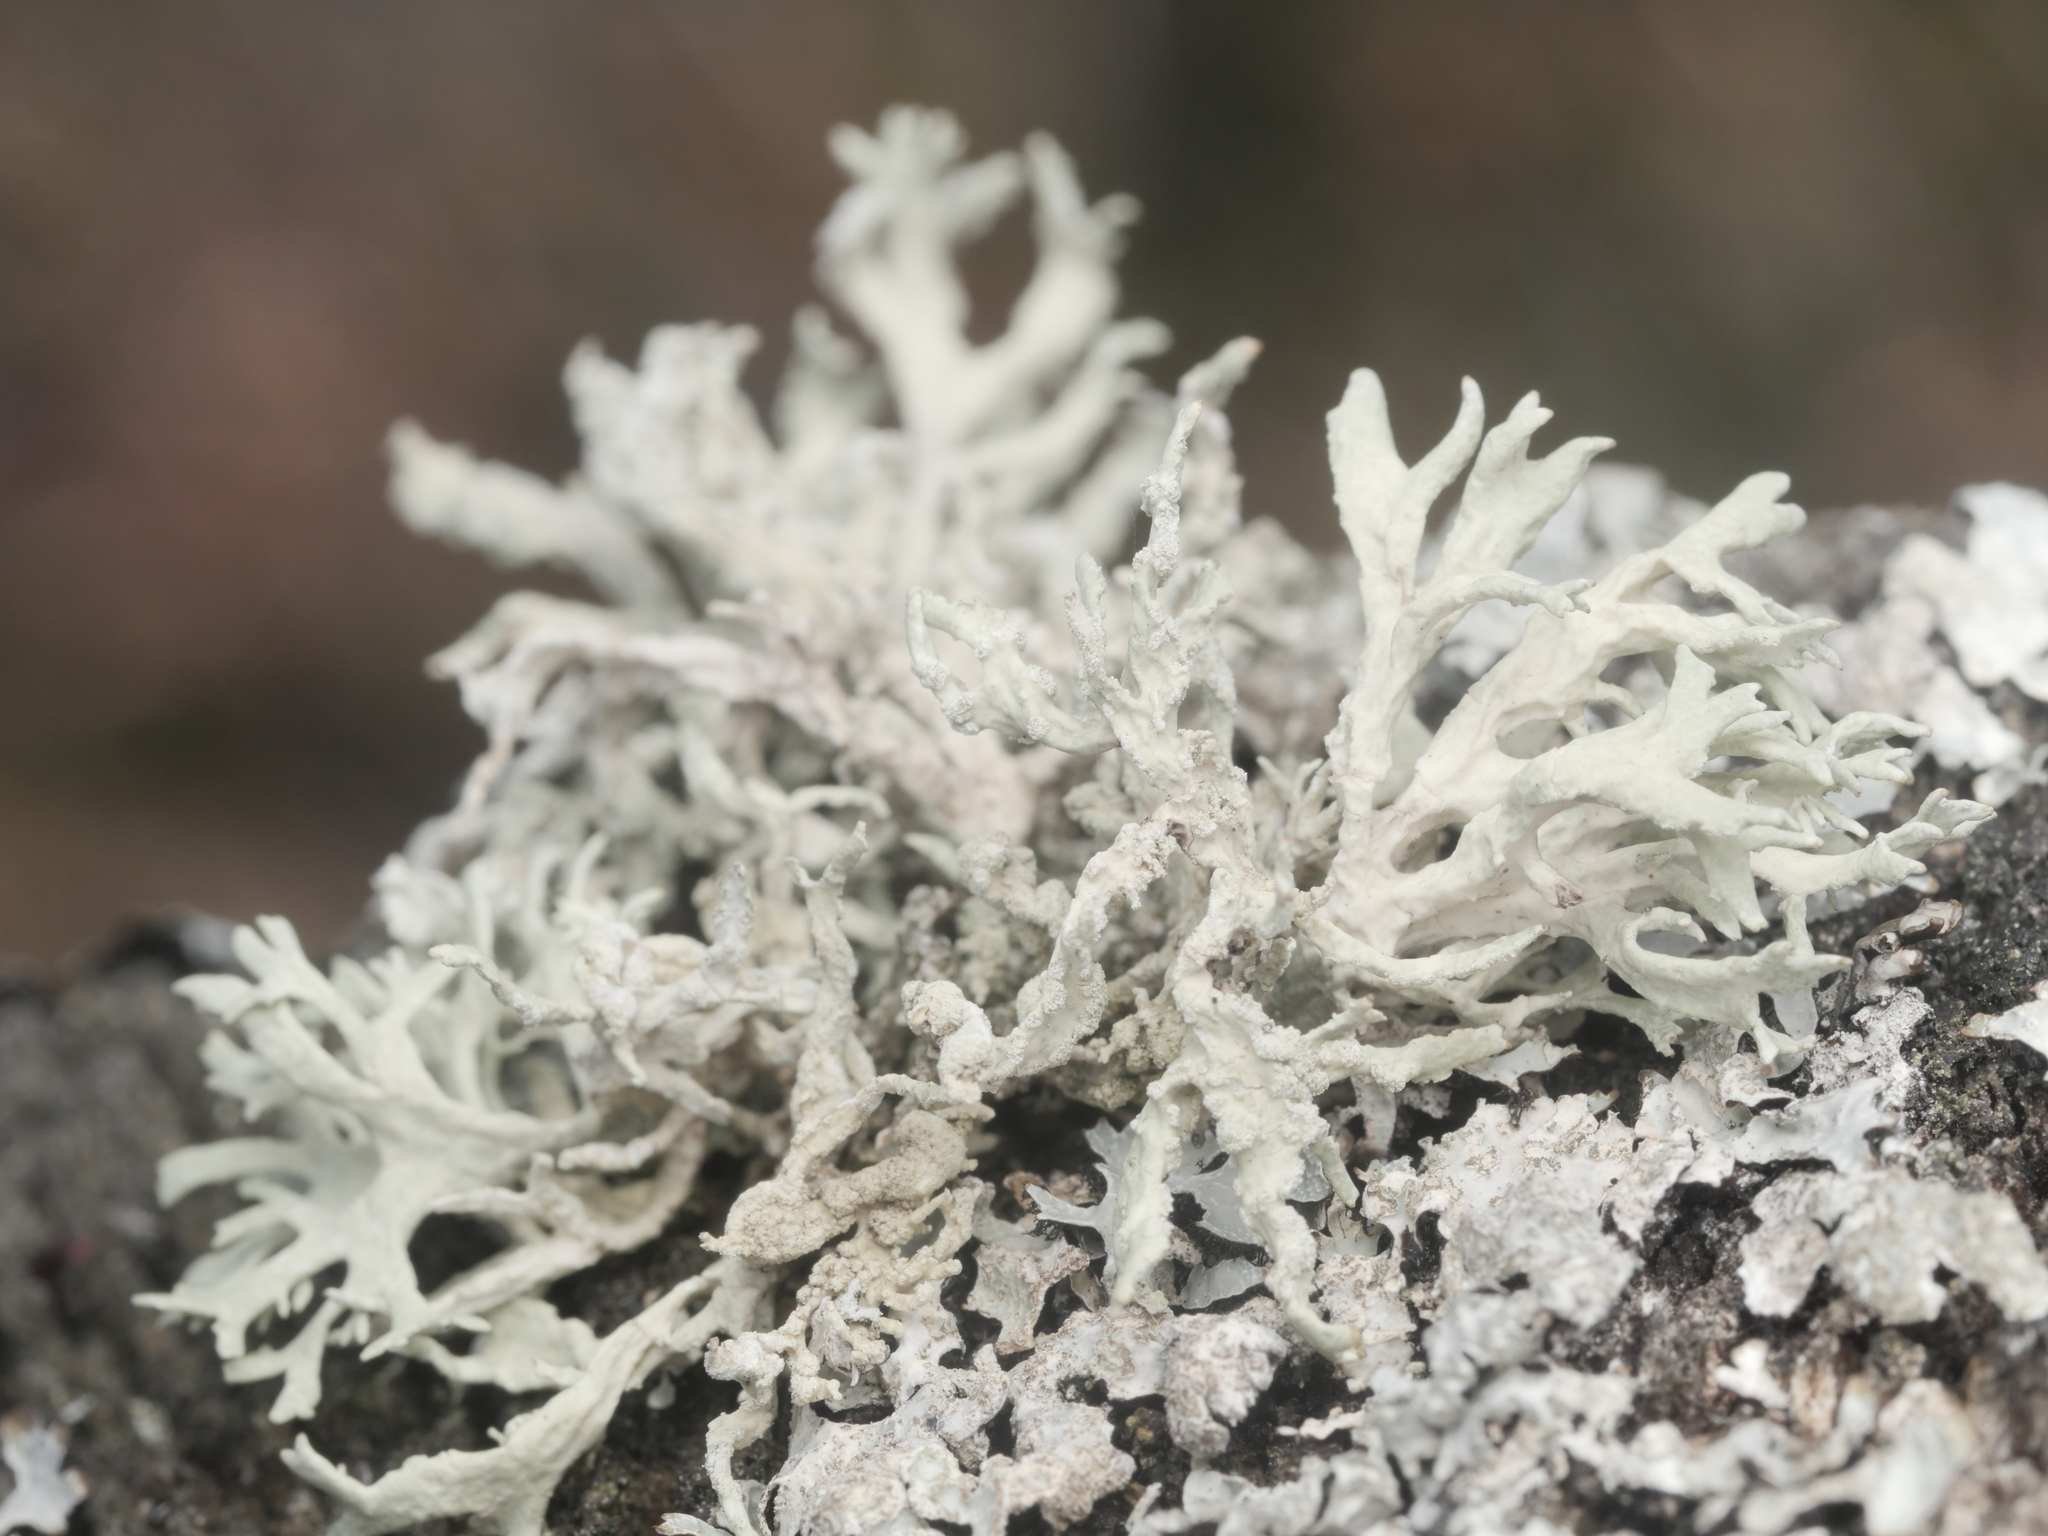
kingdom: Fungi
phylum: Ascomycota
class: Lecanoromycetes
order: Lecanorales
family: Parmeliaceae
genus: Evernia
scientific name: Evernia prunastri
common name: Oak moss
